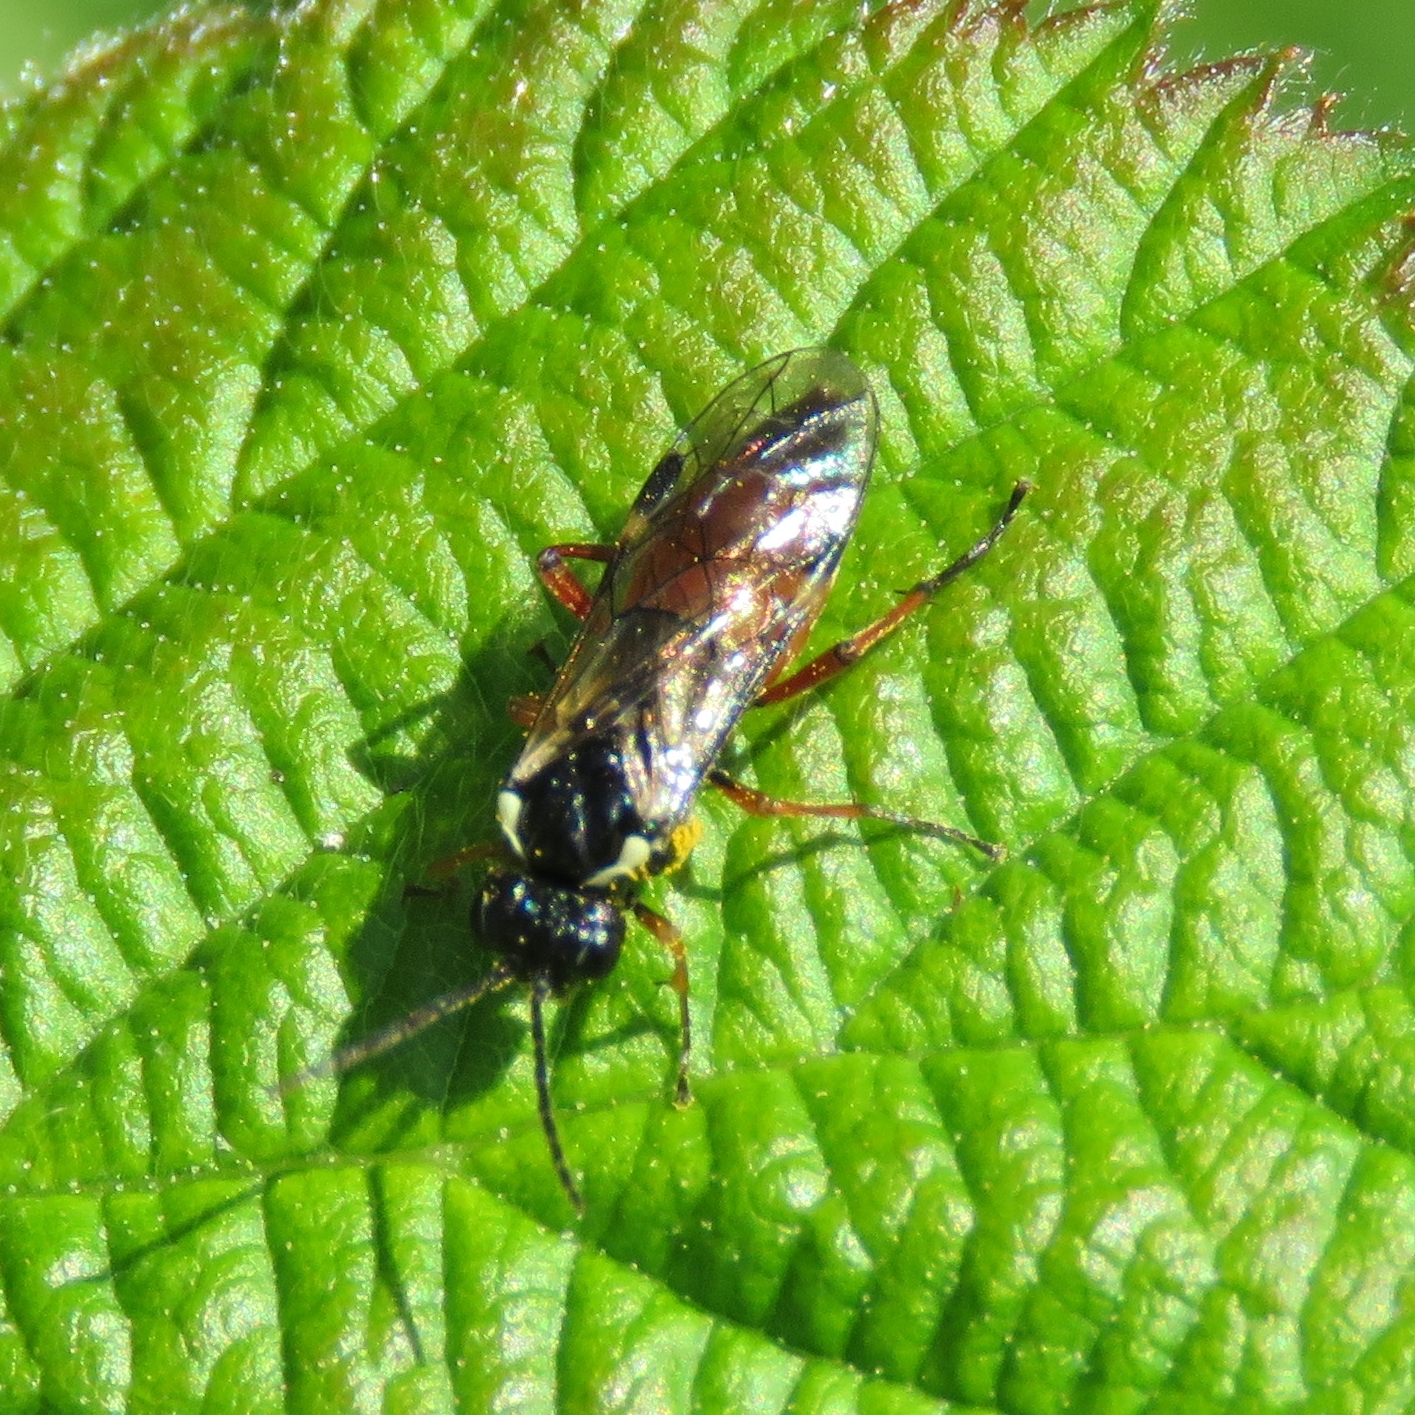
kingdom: Animalia
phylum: Arthropoda
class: Insecta
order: Hymenoptera
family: Tenthredinidae
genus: Aglaostigma
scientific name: Aglaostigma aucupariae
